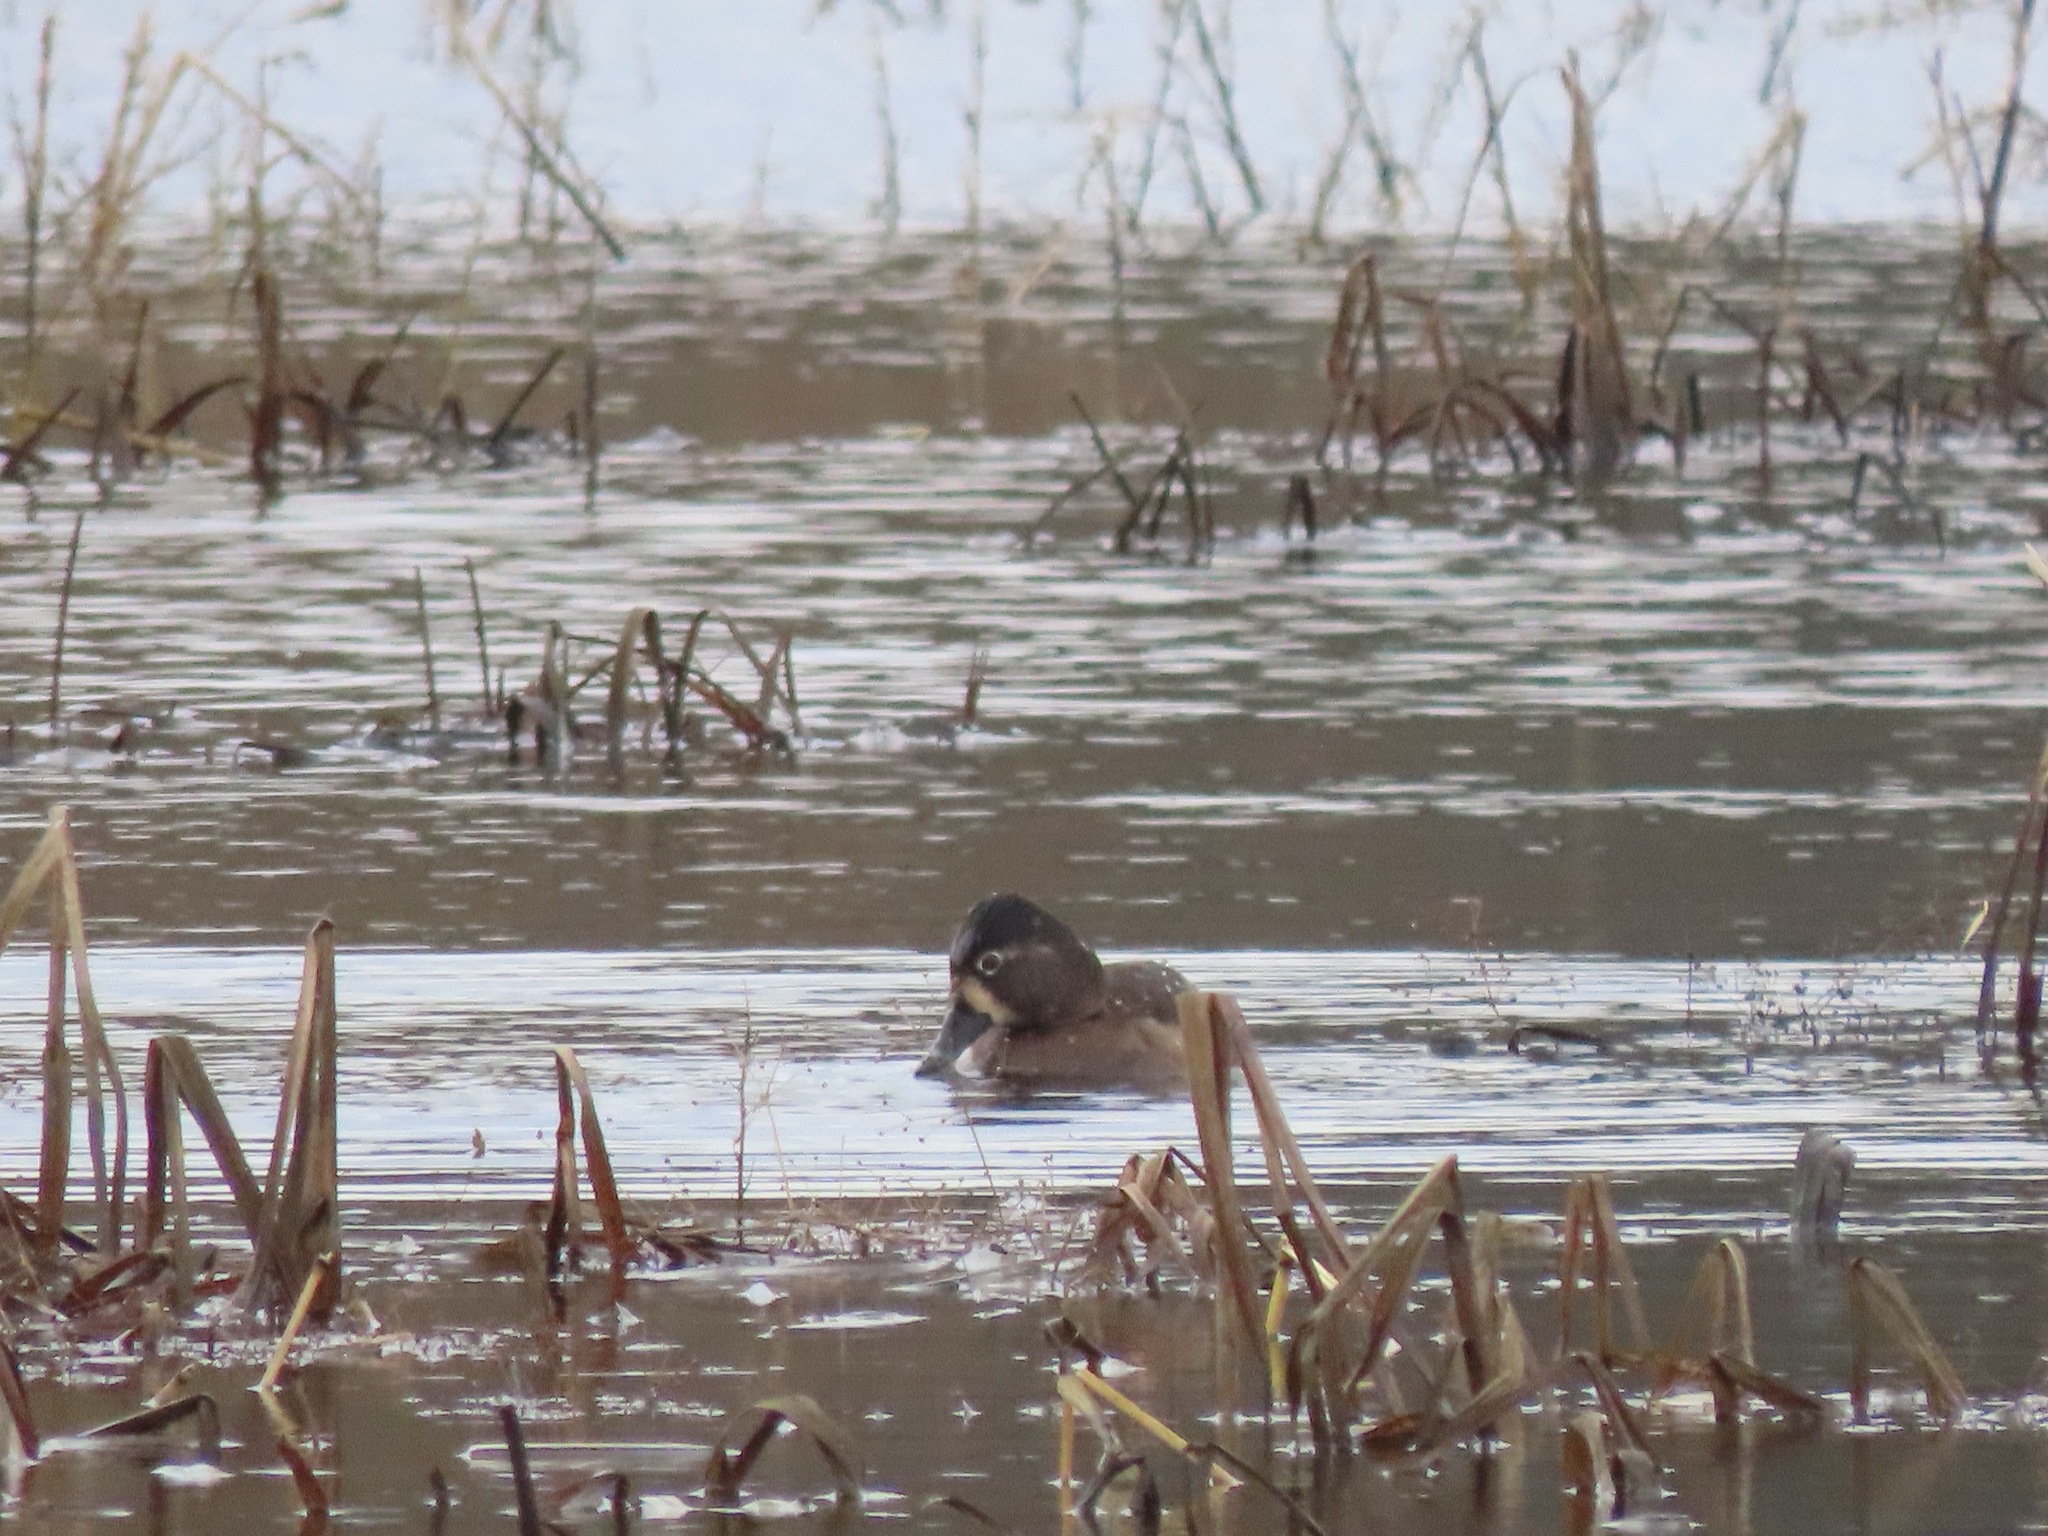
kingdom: Animalia
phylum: Chordata
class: Aves
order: Anseriformes
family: Anatidae
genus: Aythya
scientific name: Aythya collaris
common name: Ring-necked duck
